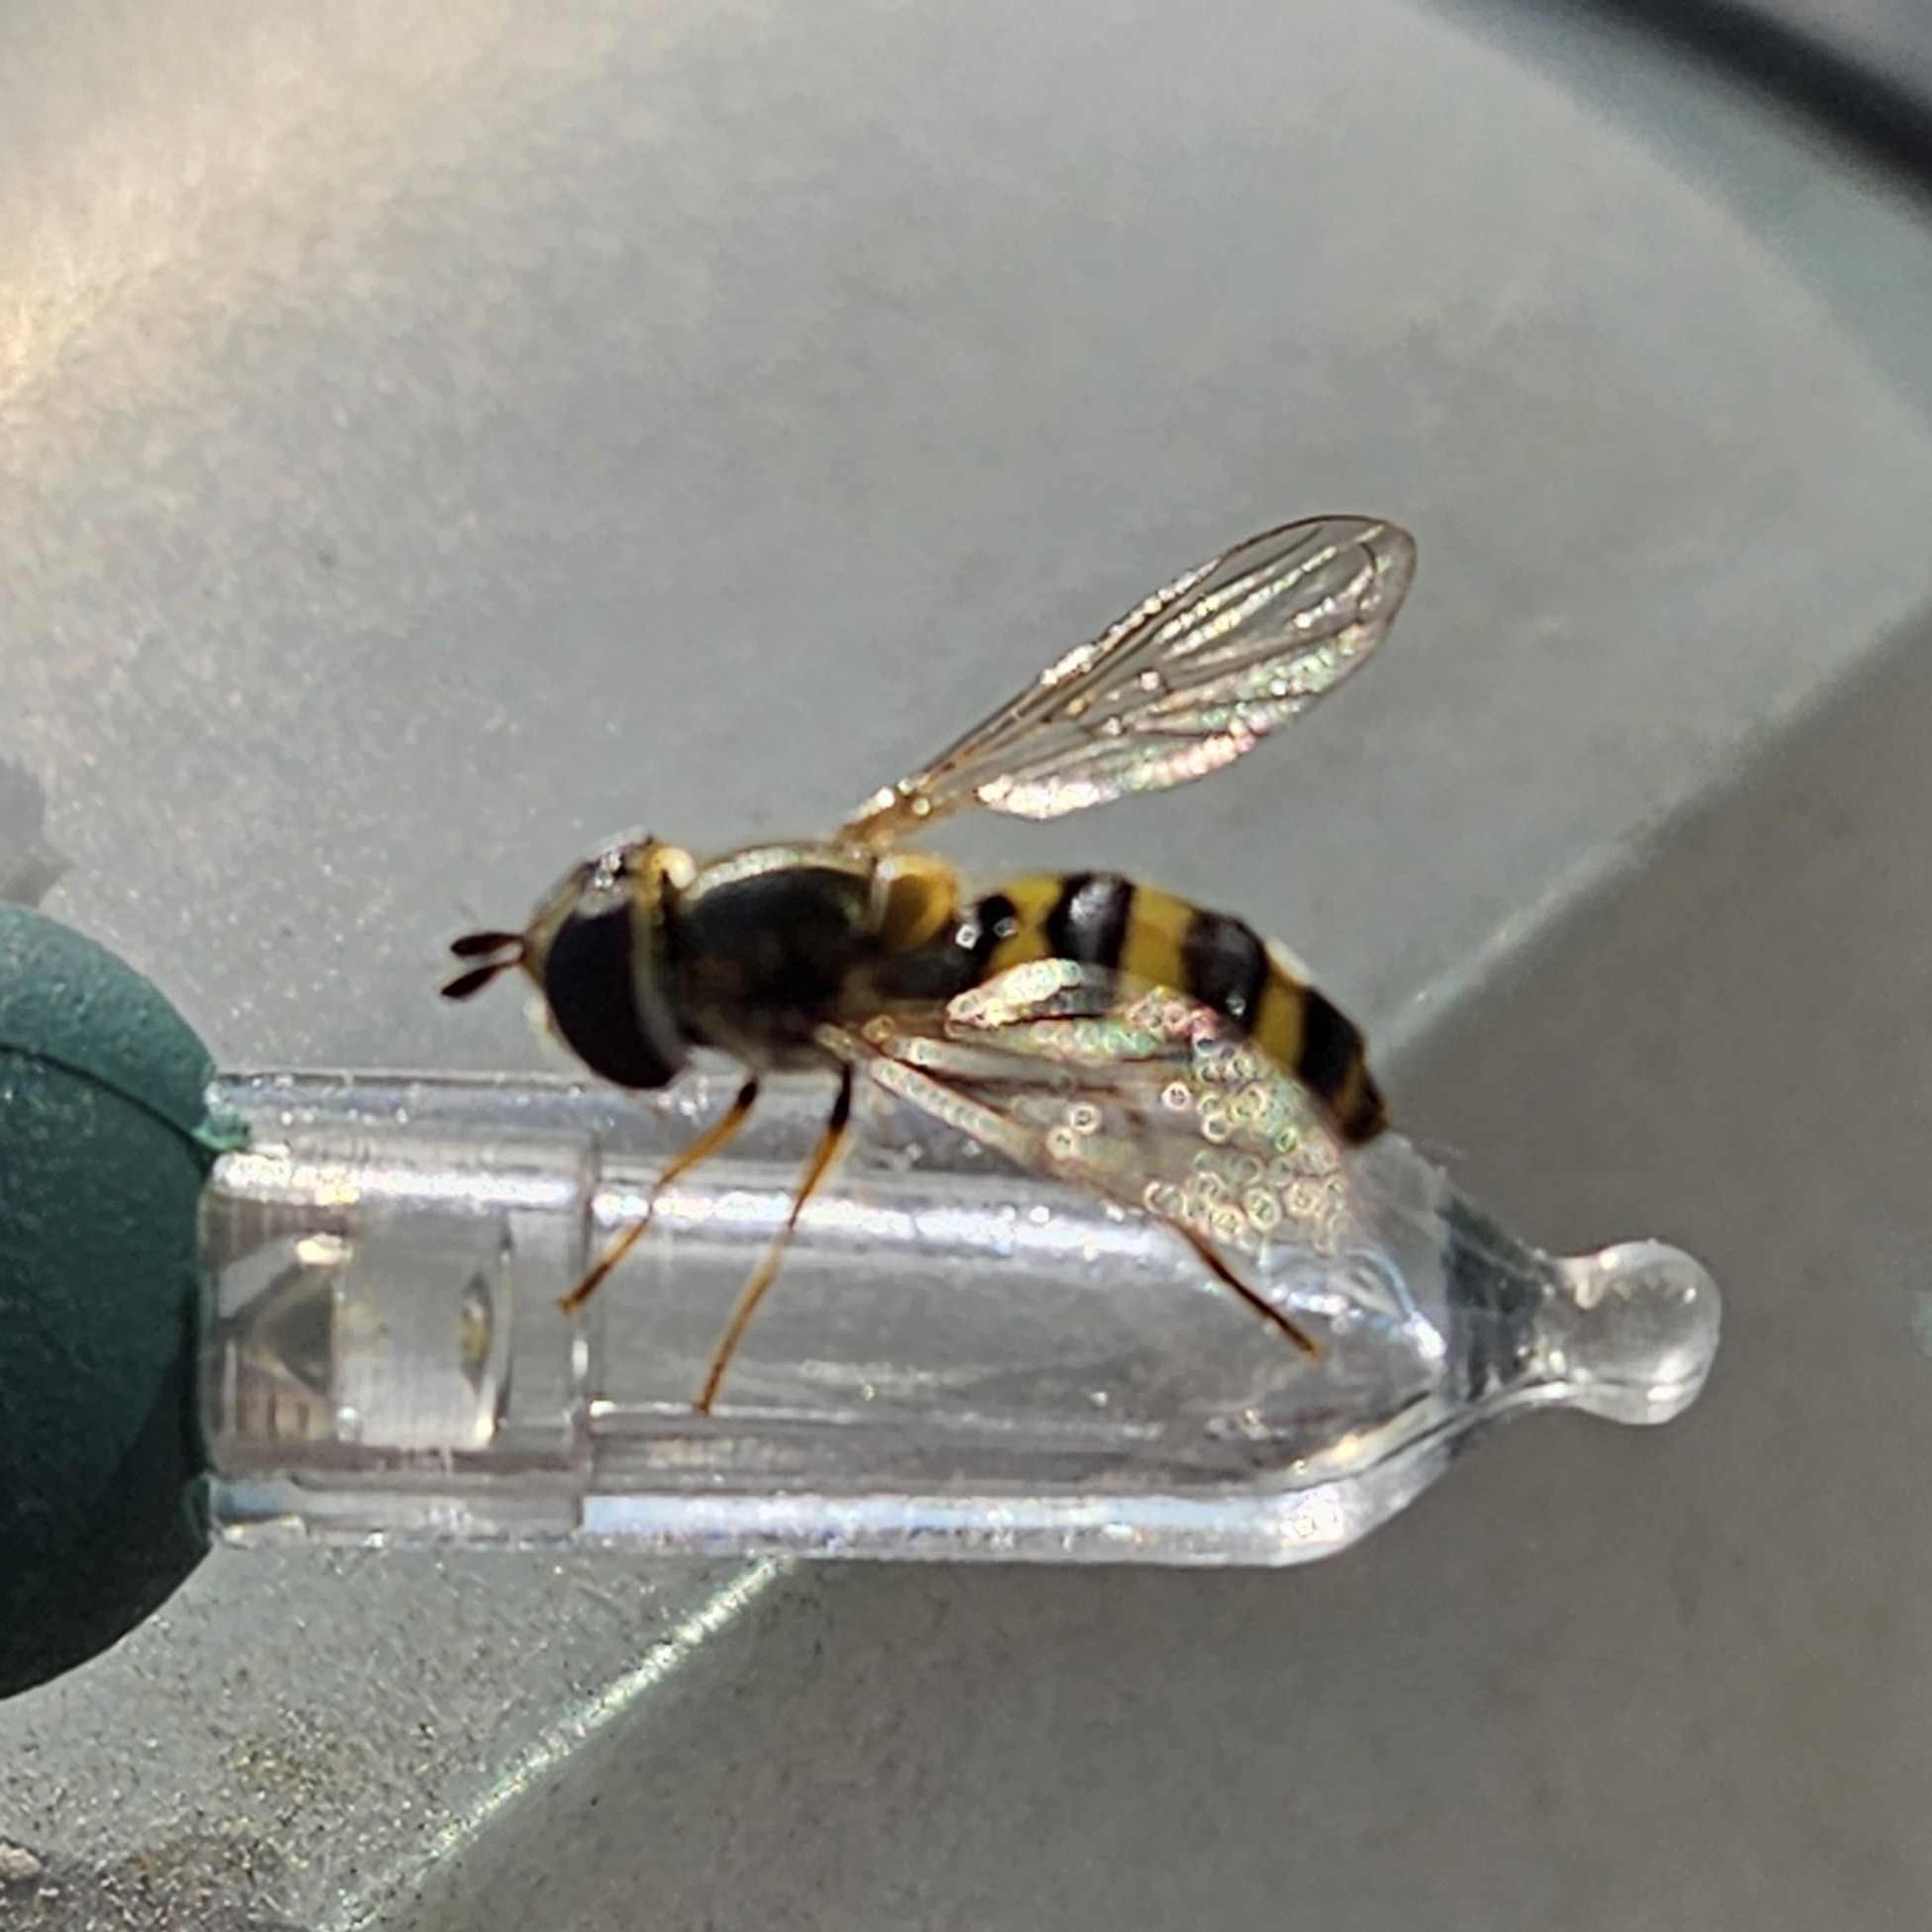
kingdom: Animalia
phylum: Arthropoda
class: Insecta
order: Diptera
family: Syrphidae
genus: Eupeodes
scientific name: Eupeodes
